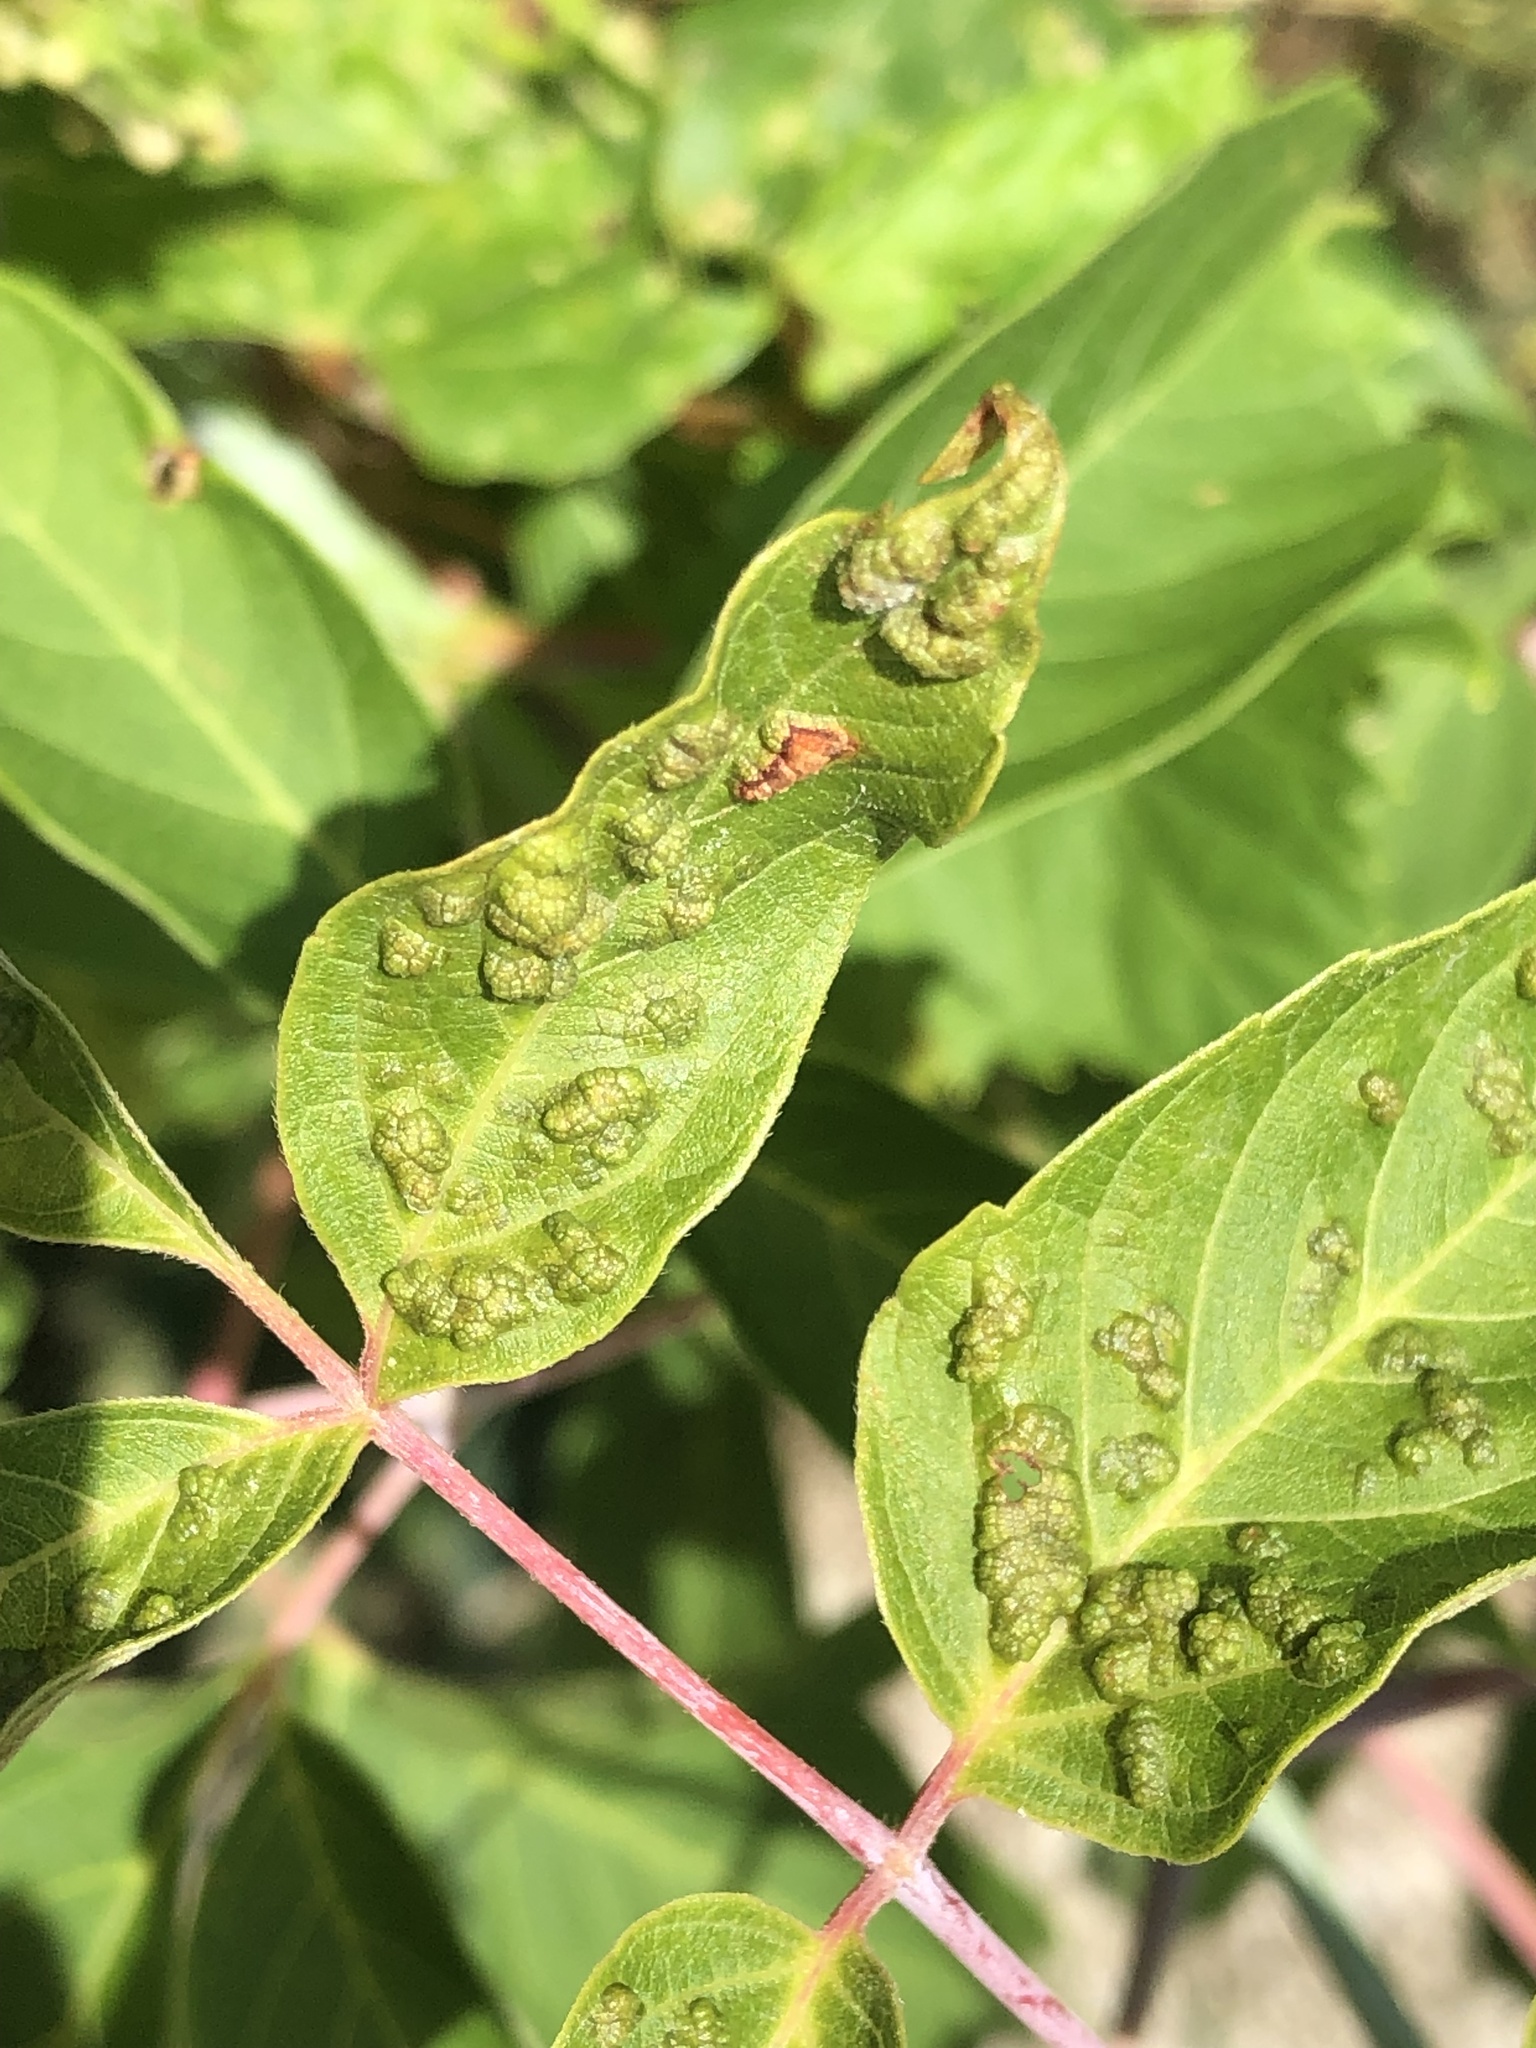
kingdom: Animalia
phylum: Arthropoda
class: Arachnida
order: Trombidiformes
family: Eriophyidae
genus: Aceria
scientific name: Aceria
